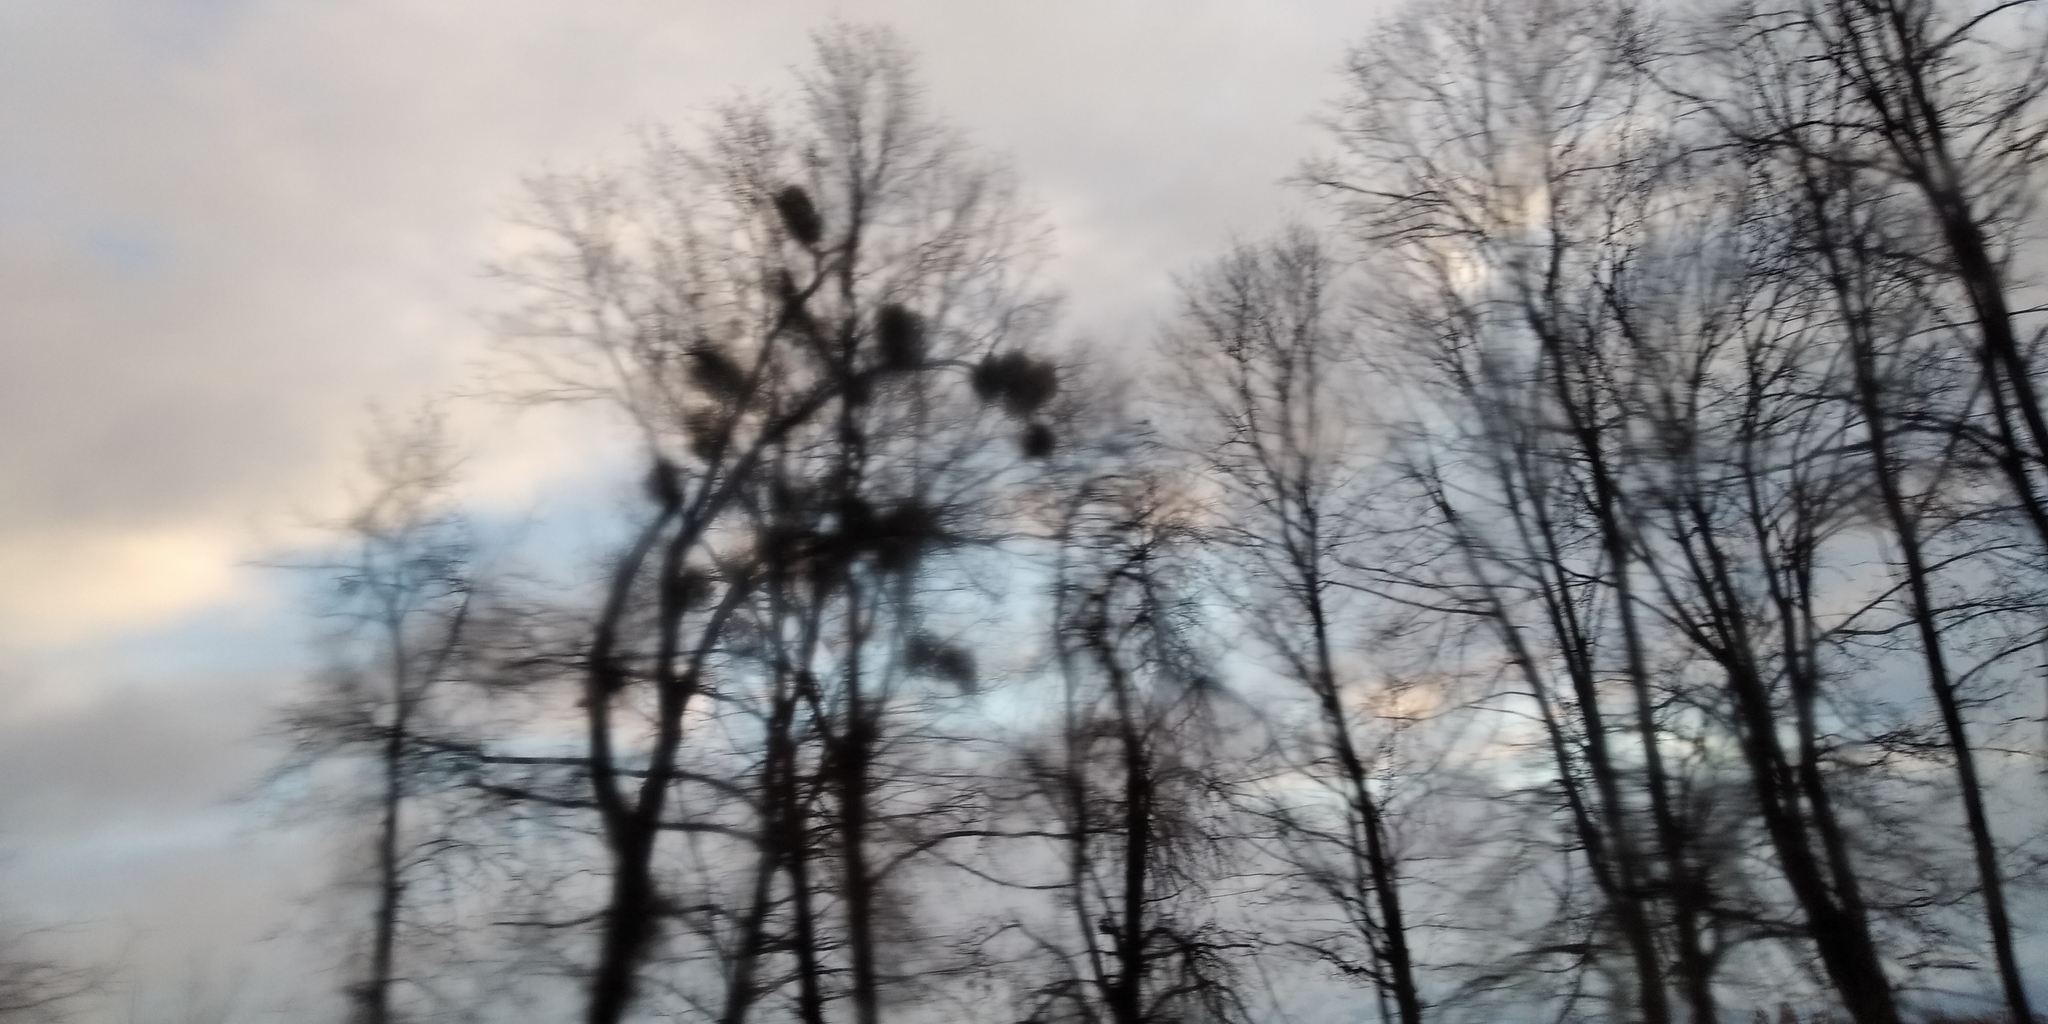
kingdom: Plantae
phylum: Tracheophyta
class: Magnoliopsida
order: Santalales
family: Viscaceae
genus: Viscum
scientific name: Viscum album
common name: Mistletoe
